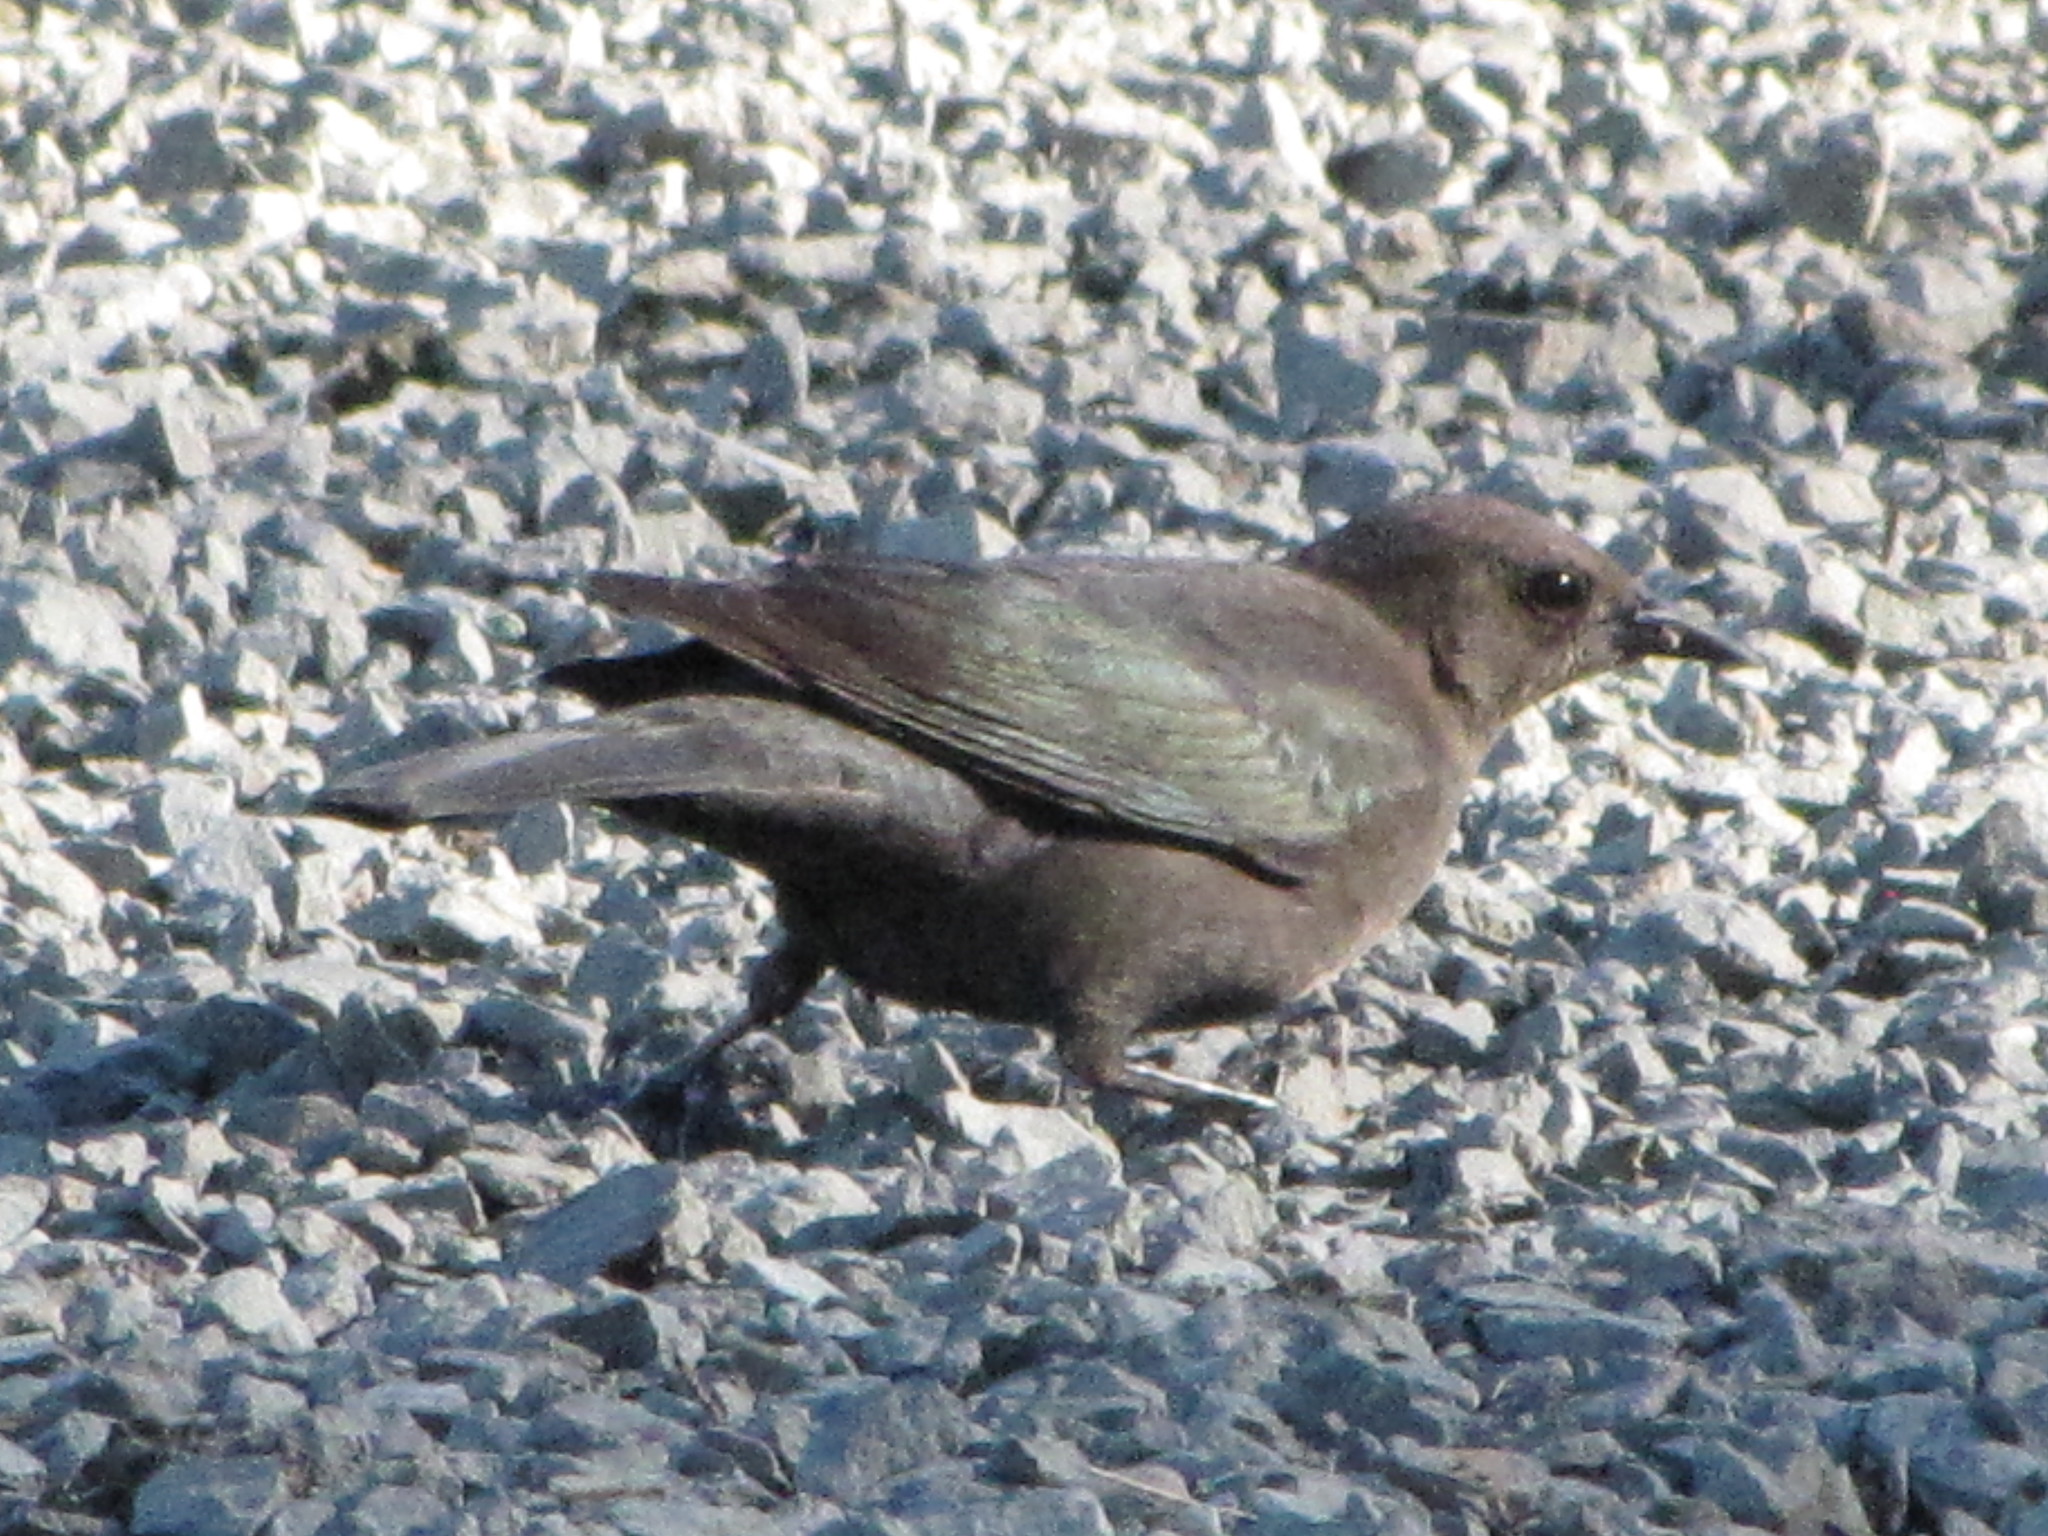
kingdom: Animalia
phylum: Chordata
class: Aves
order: Passeriformes
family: Icteridae
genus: Euphagus
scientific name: Euphagus cyanocephalus
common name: Brewer's blackbird
